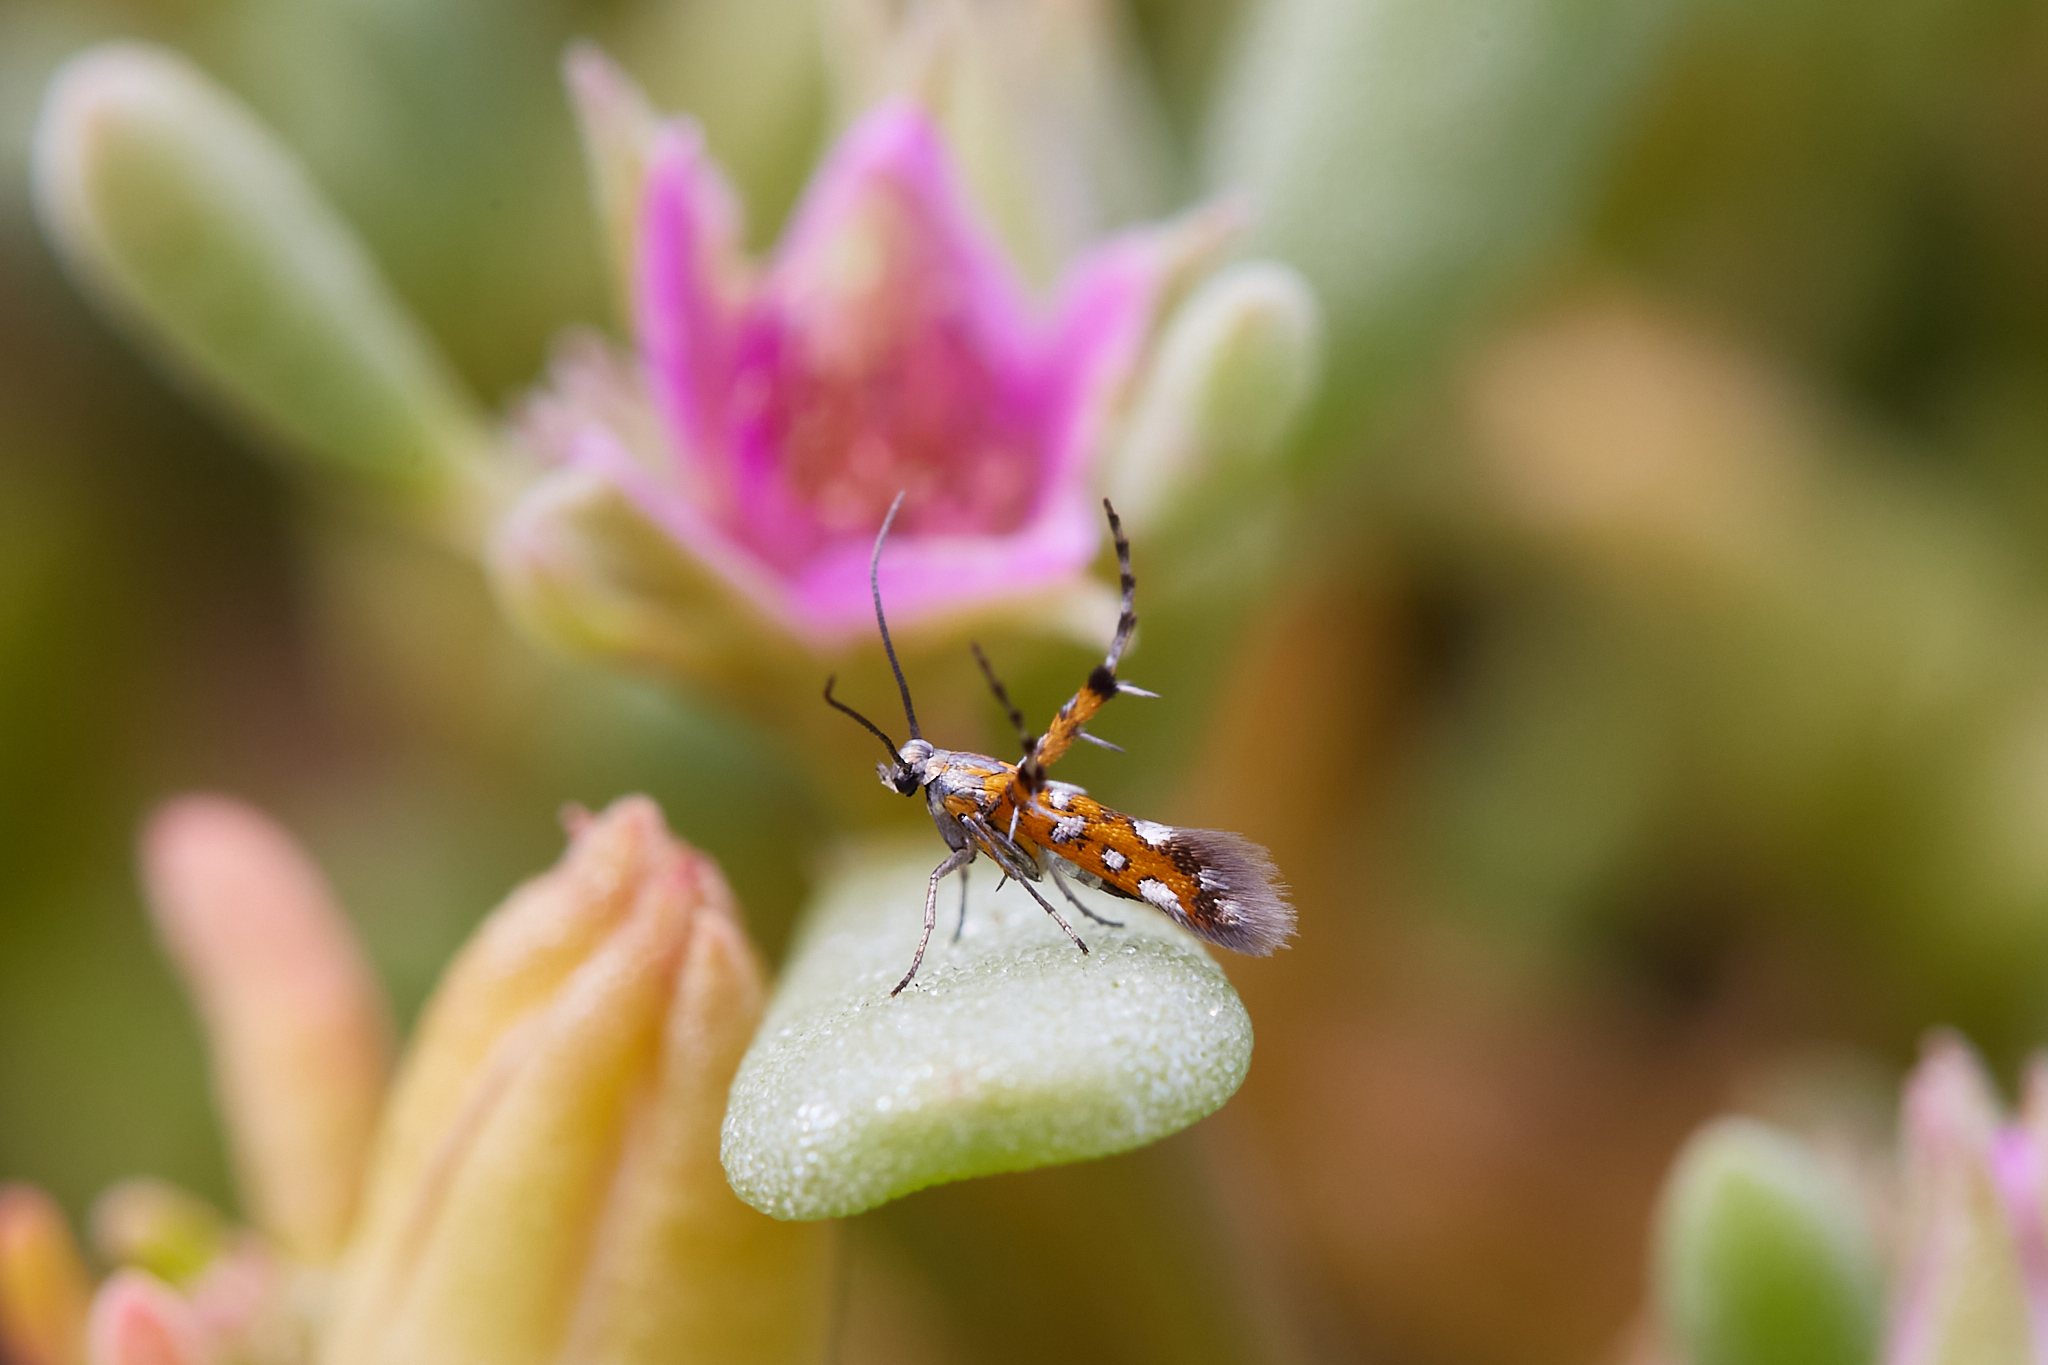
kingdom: Animalia
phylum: Arthropoda
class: Insecta
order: Lepidoptera
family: Heliodinidae
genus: Heliodines
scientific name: Heliodines
